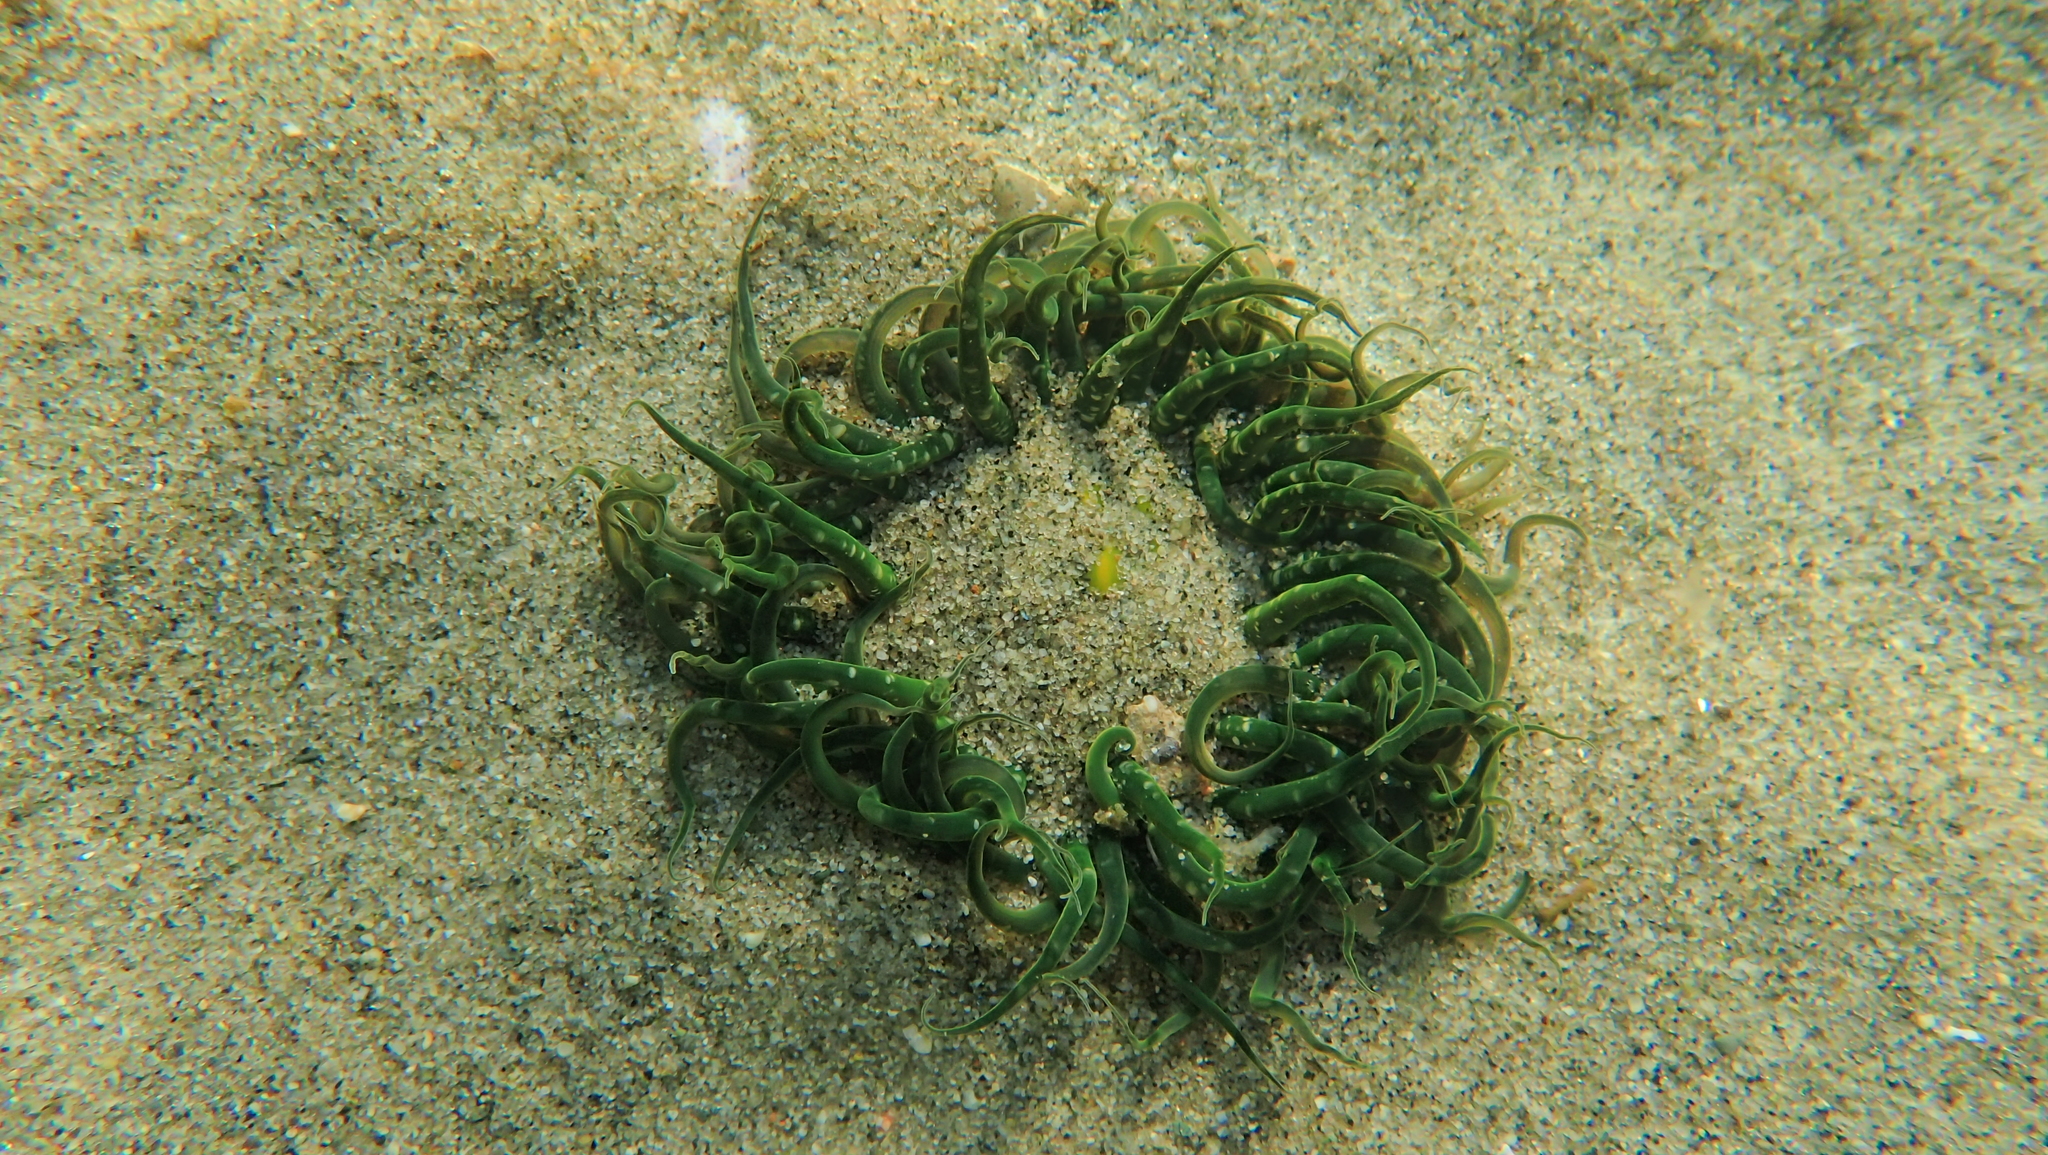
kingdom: Animalia
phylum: Cnidaria
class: Anthozoa
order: Actiniaria
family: Actiniidae
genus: Anthopleura
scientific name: Anthopleura artemisia
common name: Buried sea anemone
